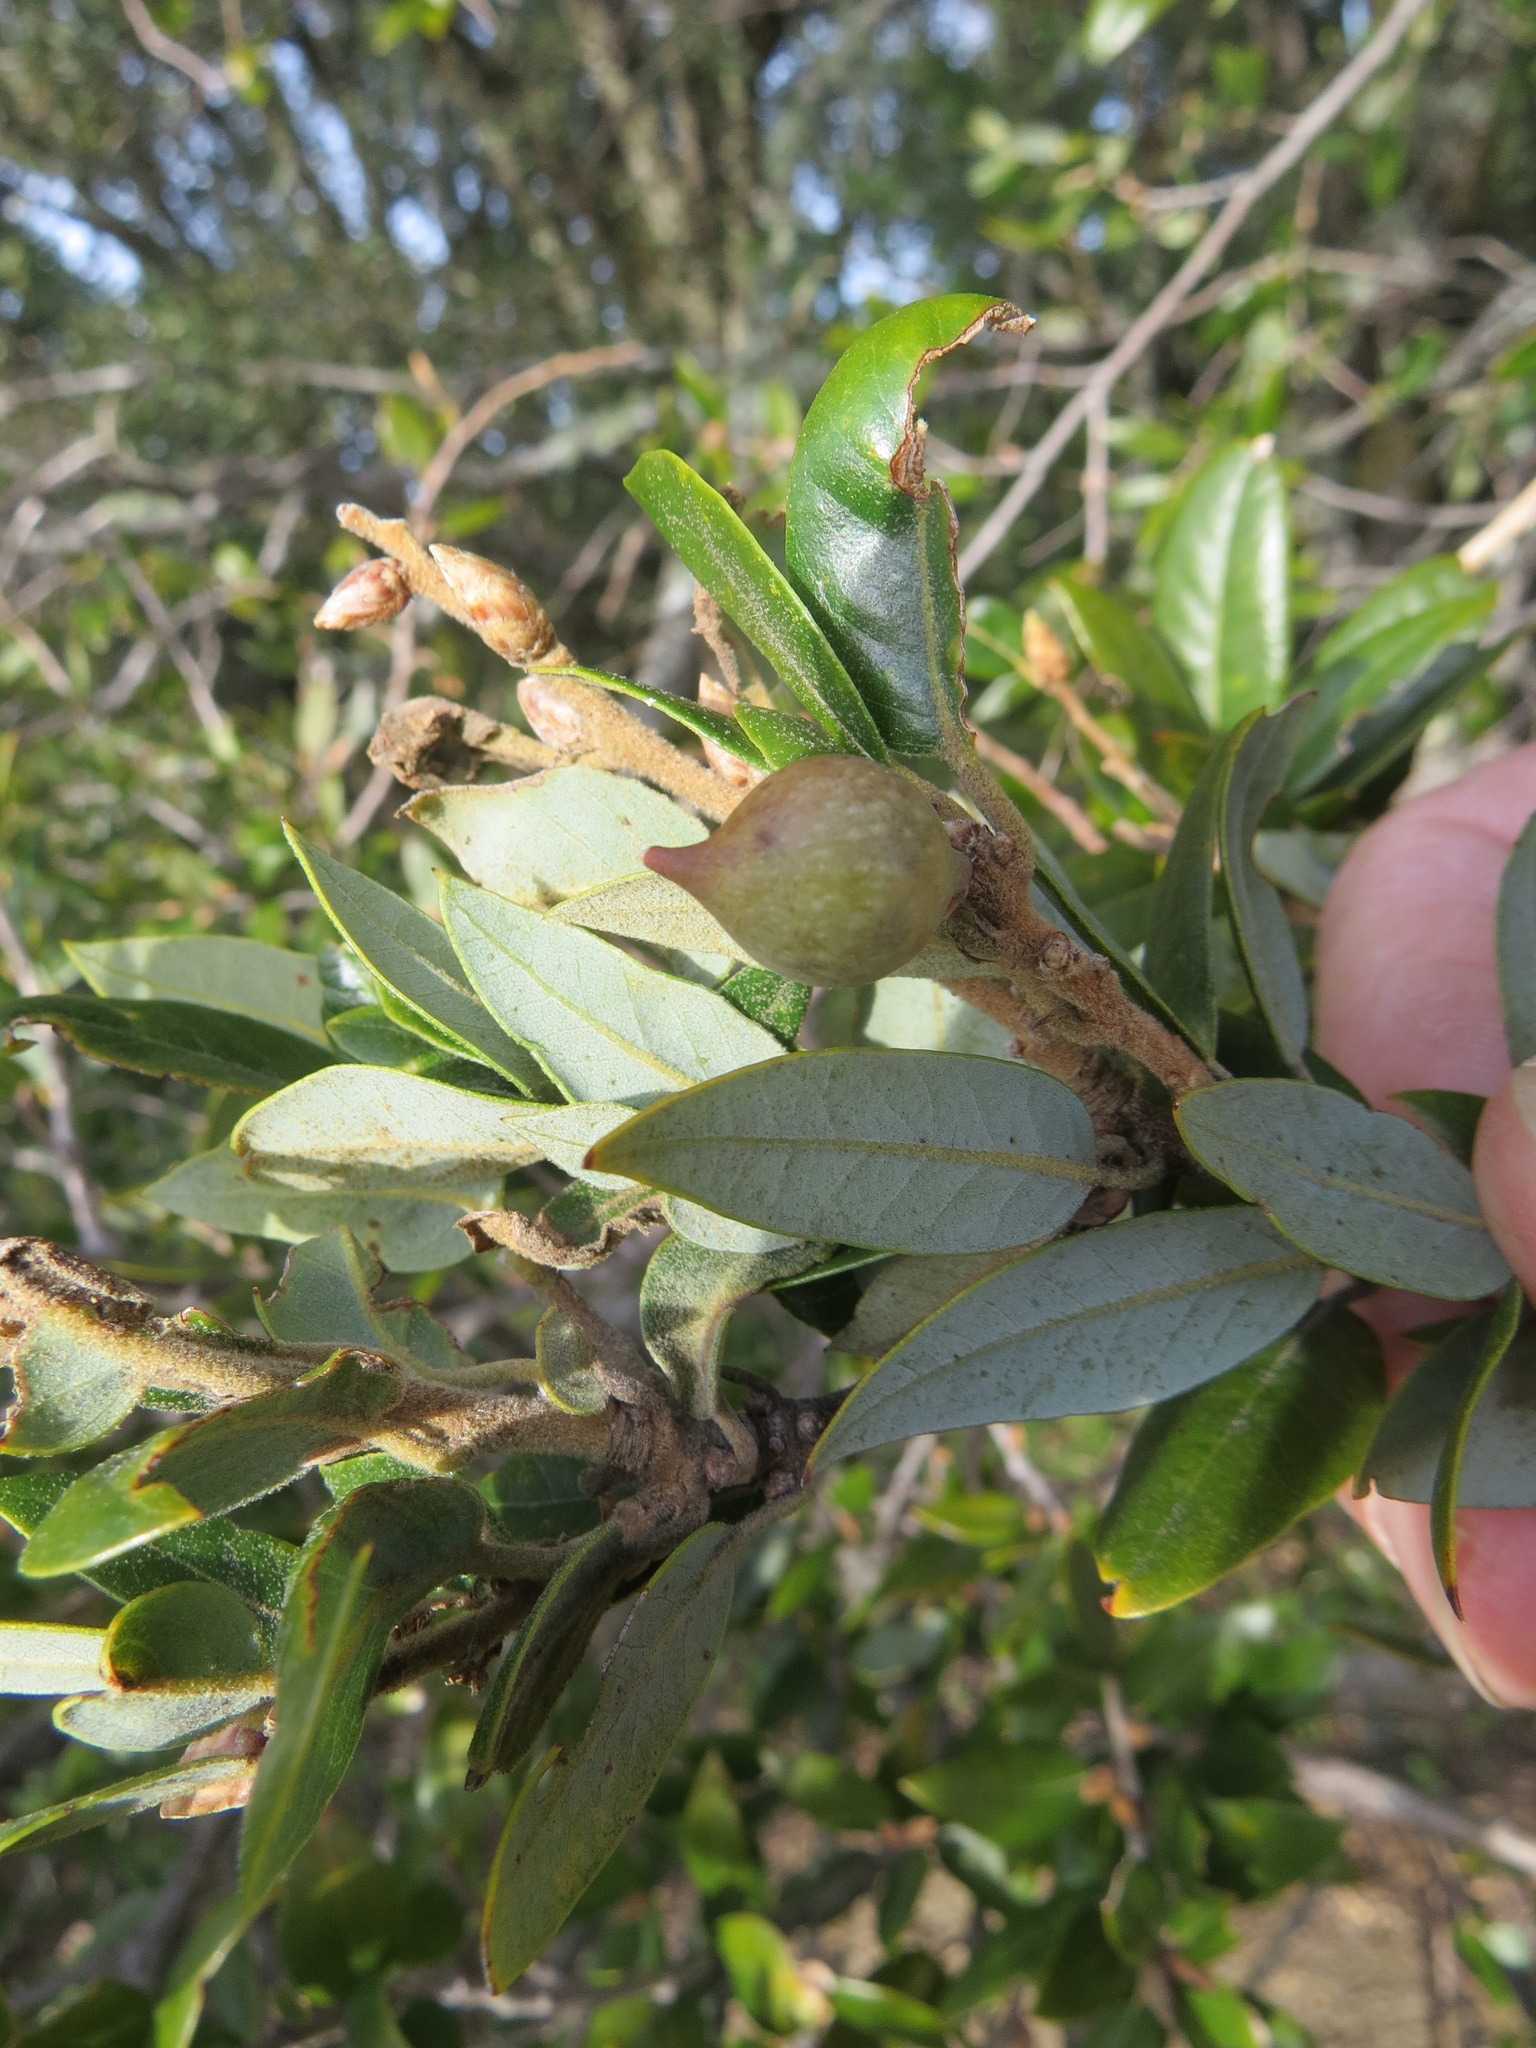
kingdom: Animalia
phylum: Arthropoda
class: Insecta
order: Hymenoptera
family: Cynipidae
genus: Heteroecus
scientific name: Heteroecus pacificus
